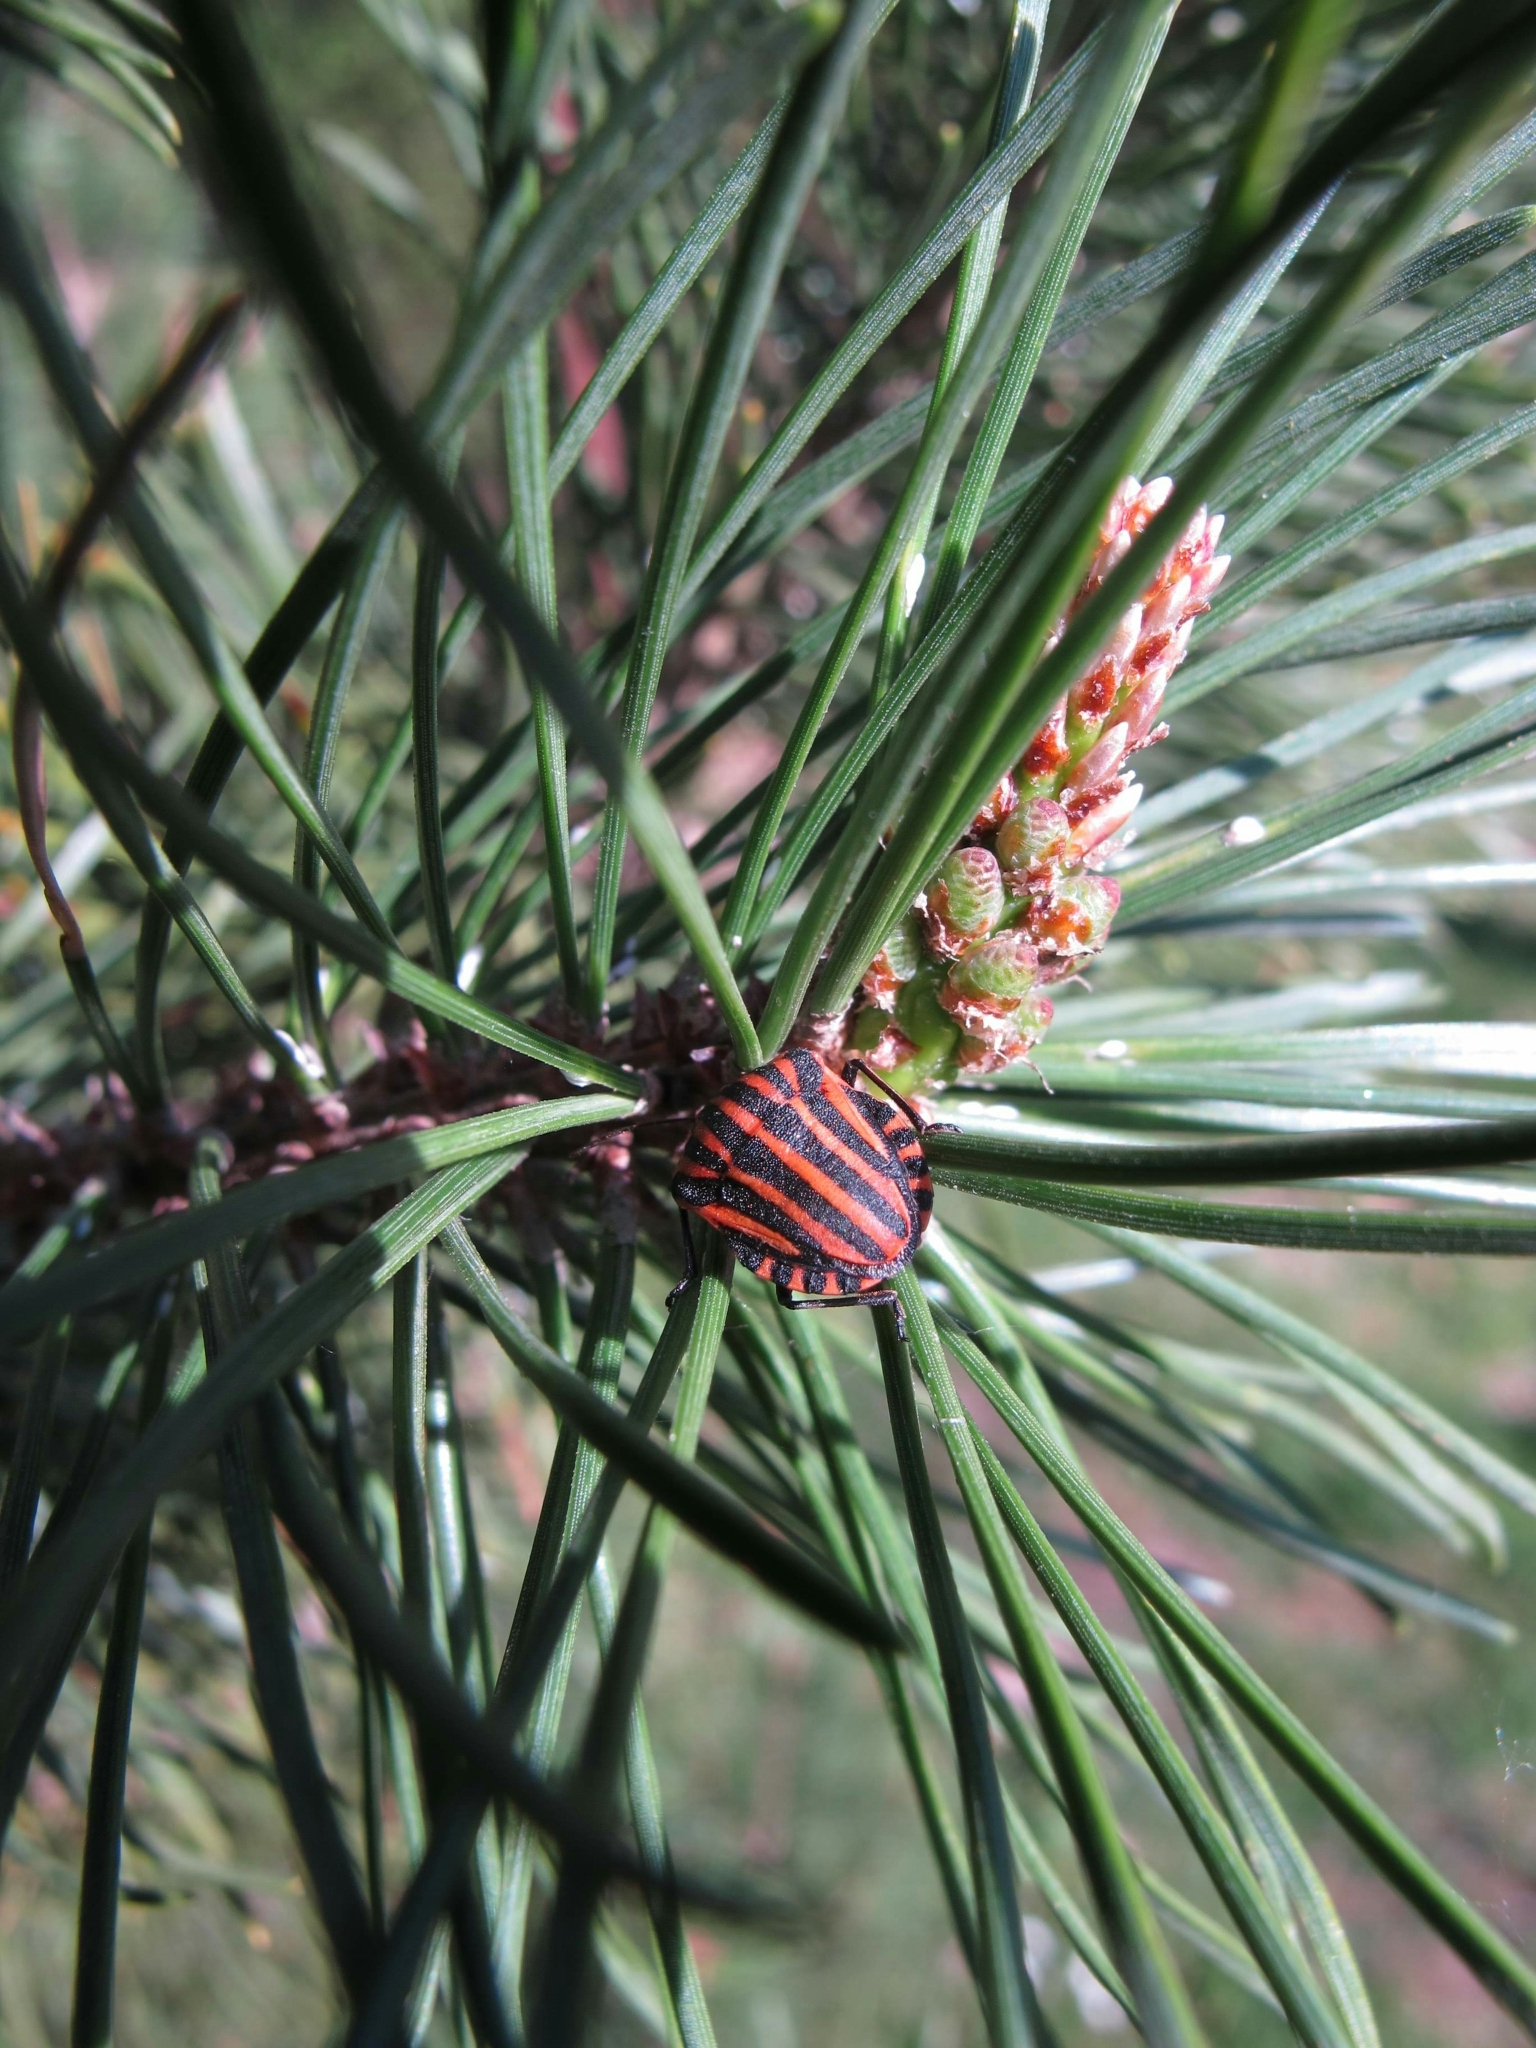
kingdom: Animalia
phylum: Arthropoda
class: Insecta
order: Hemiptera
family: Pentatomidae
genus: Graphosoma
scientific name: Graphosoma italicum
